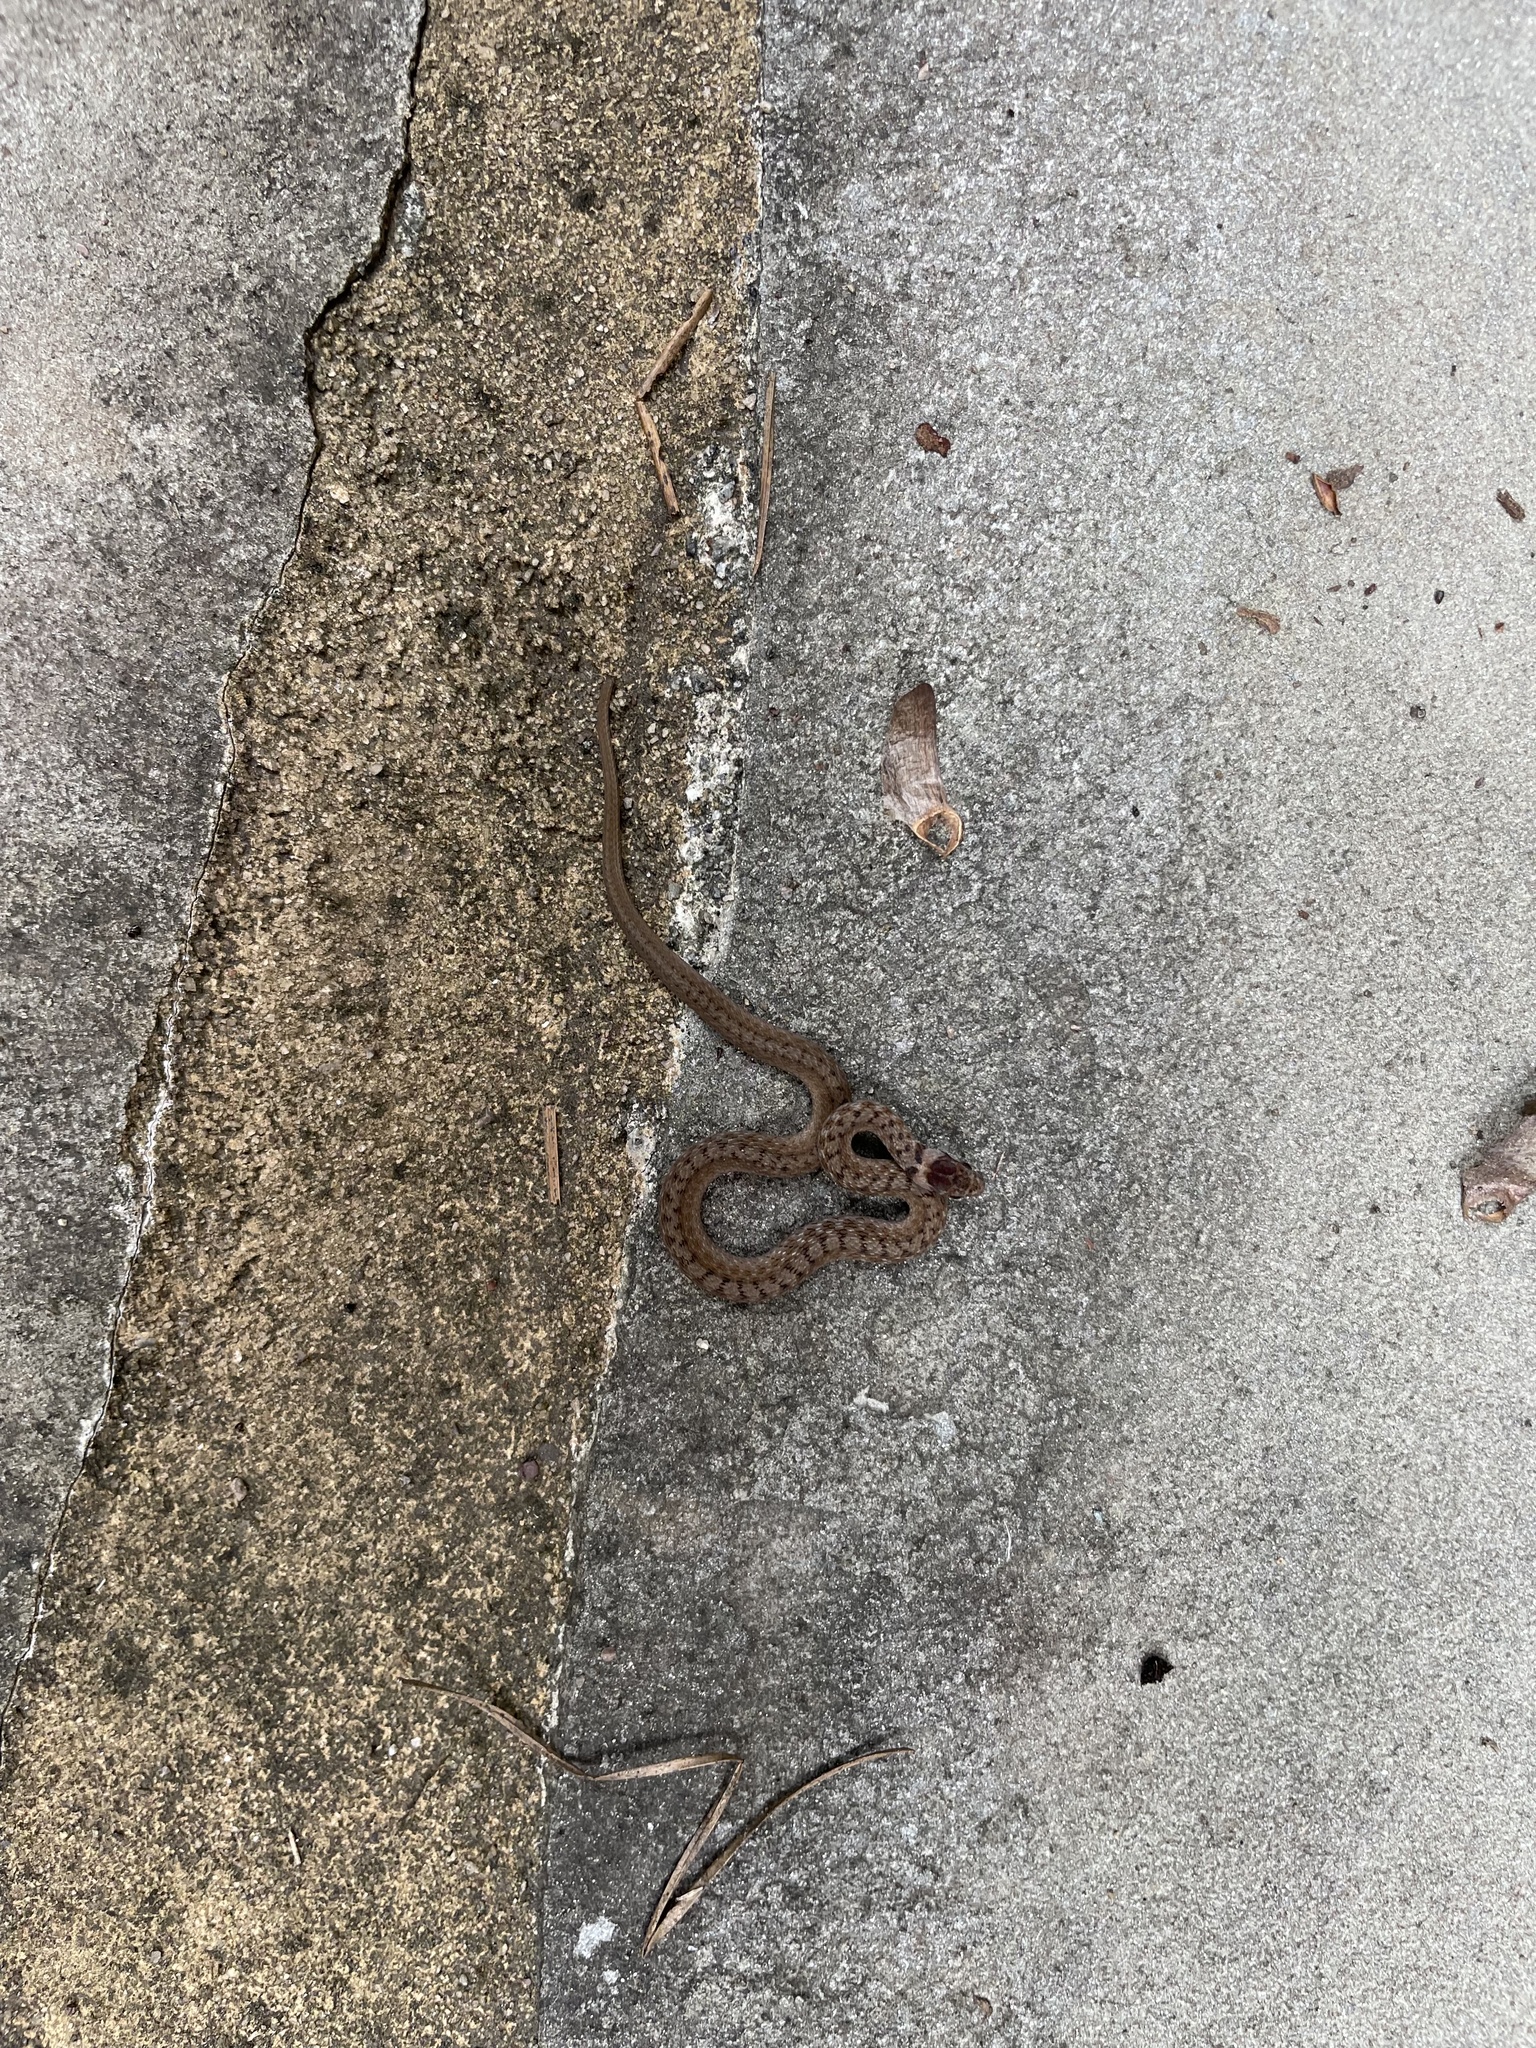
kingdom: Animalia
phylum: Chordata
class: Squamata
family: Colubridae
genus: Storeria
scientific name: Storeria dekayi
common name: (dekay’s) brown snake
